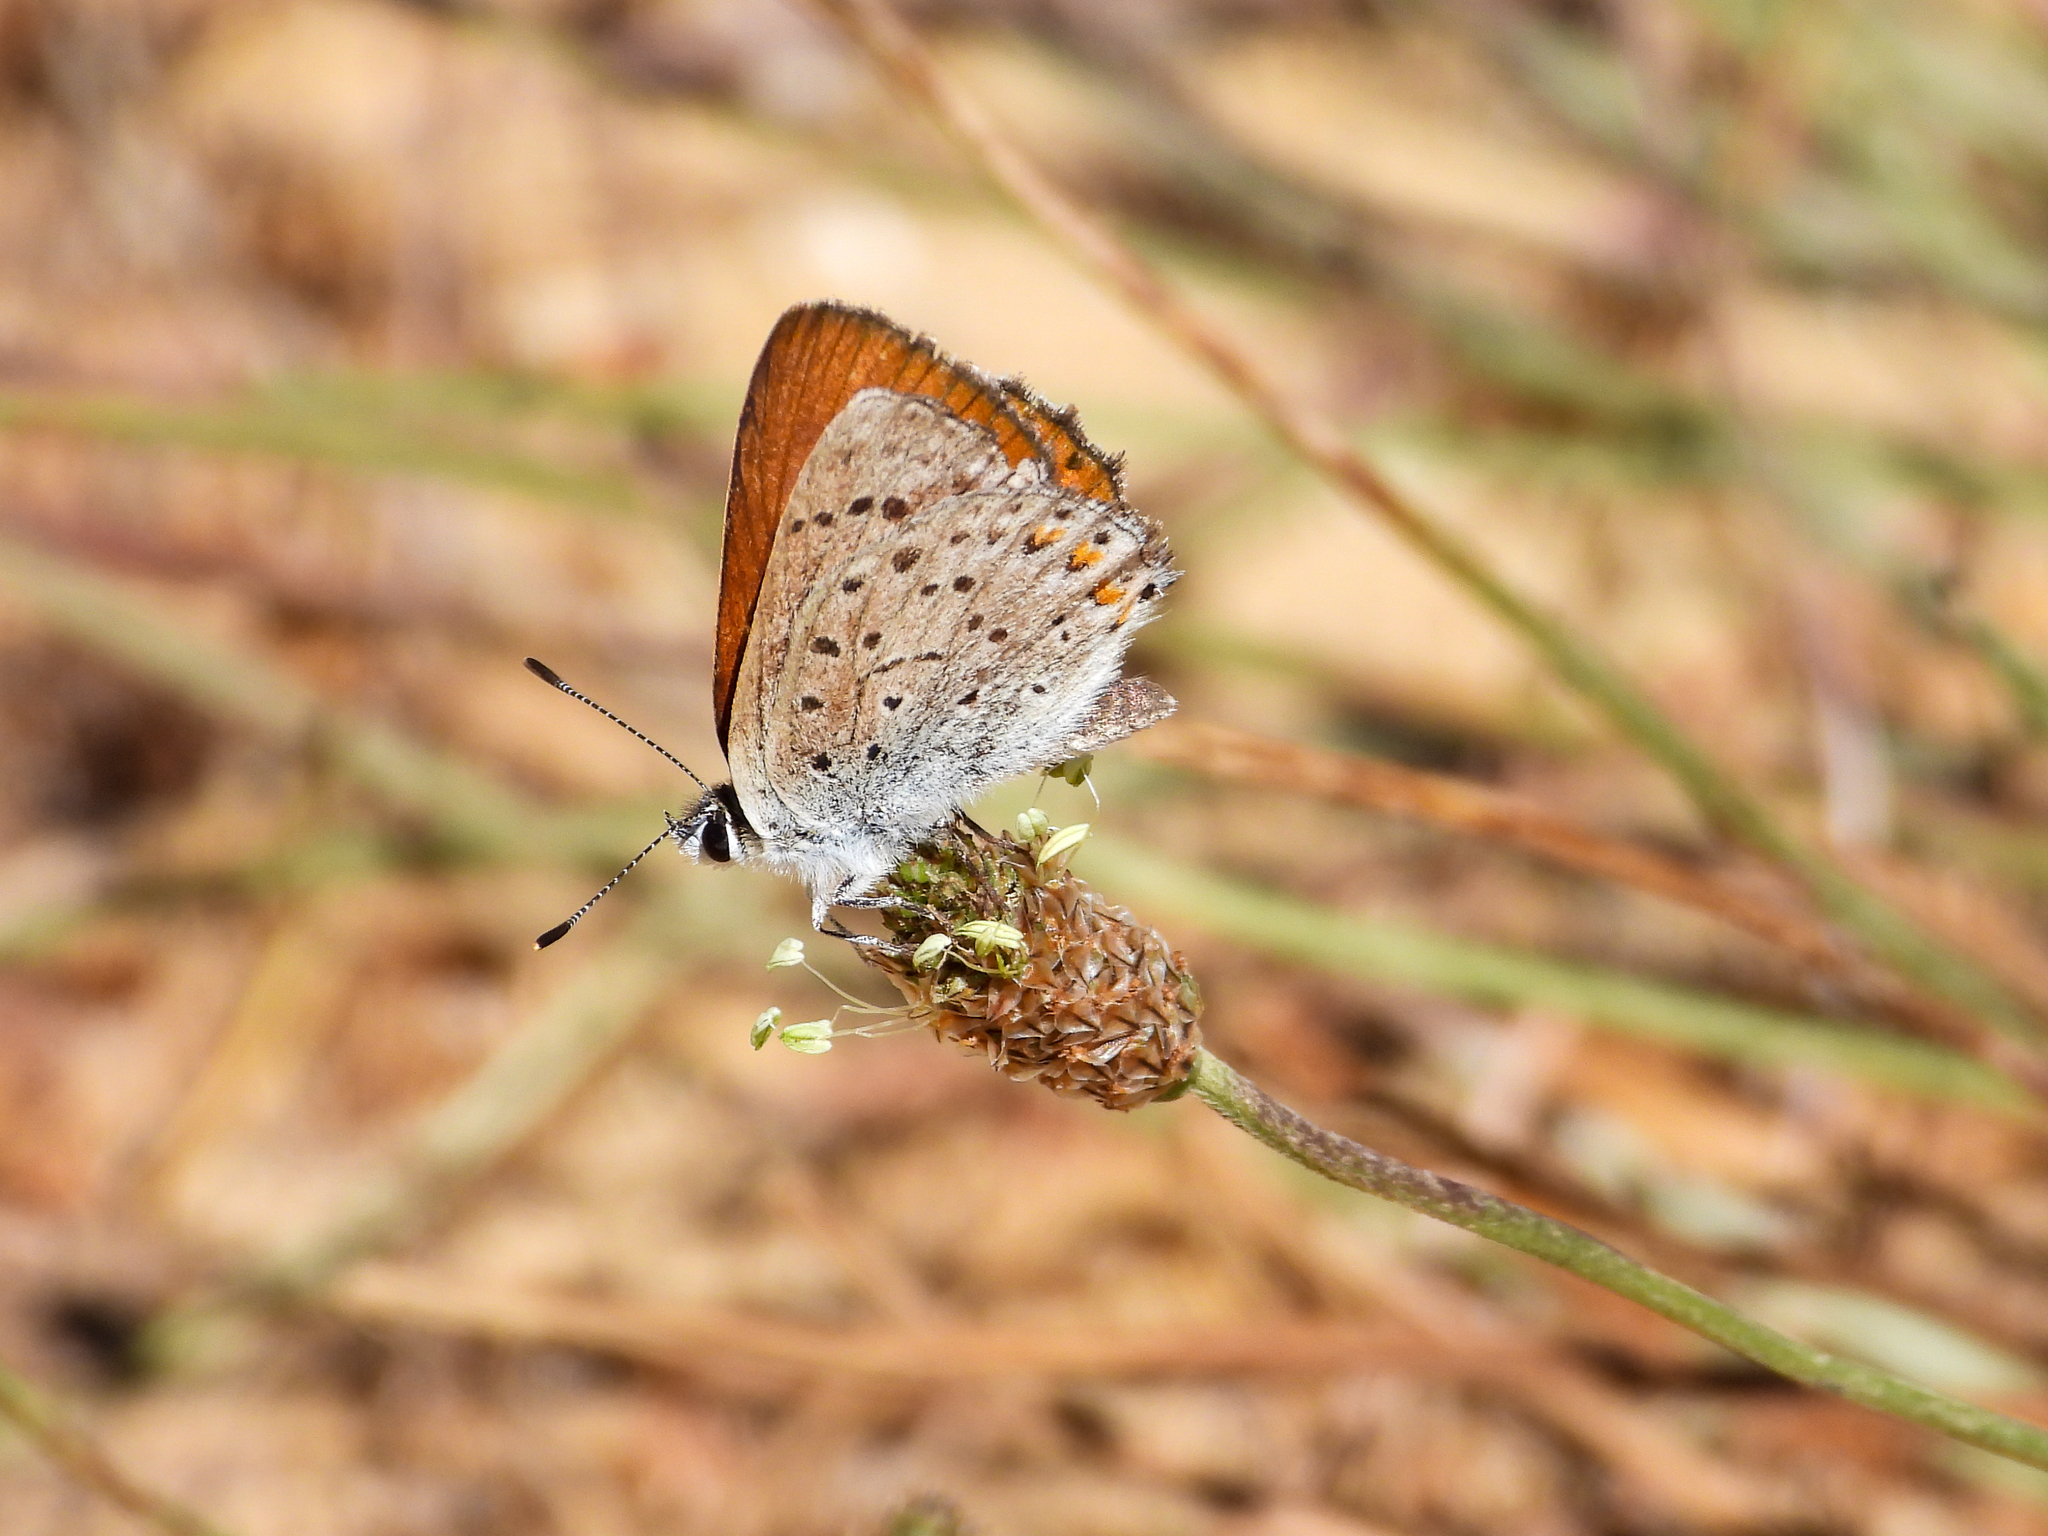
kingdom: Animalia
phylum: Arthropoda
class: Insecta
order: Lepidoptera
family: Lycaenidae
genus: Tharsalea
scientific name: Tharsalea gorgon
